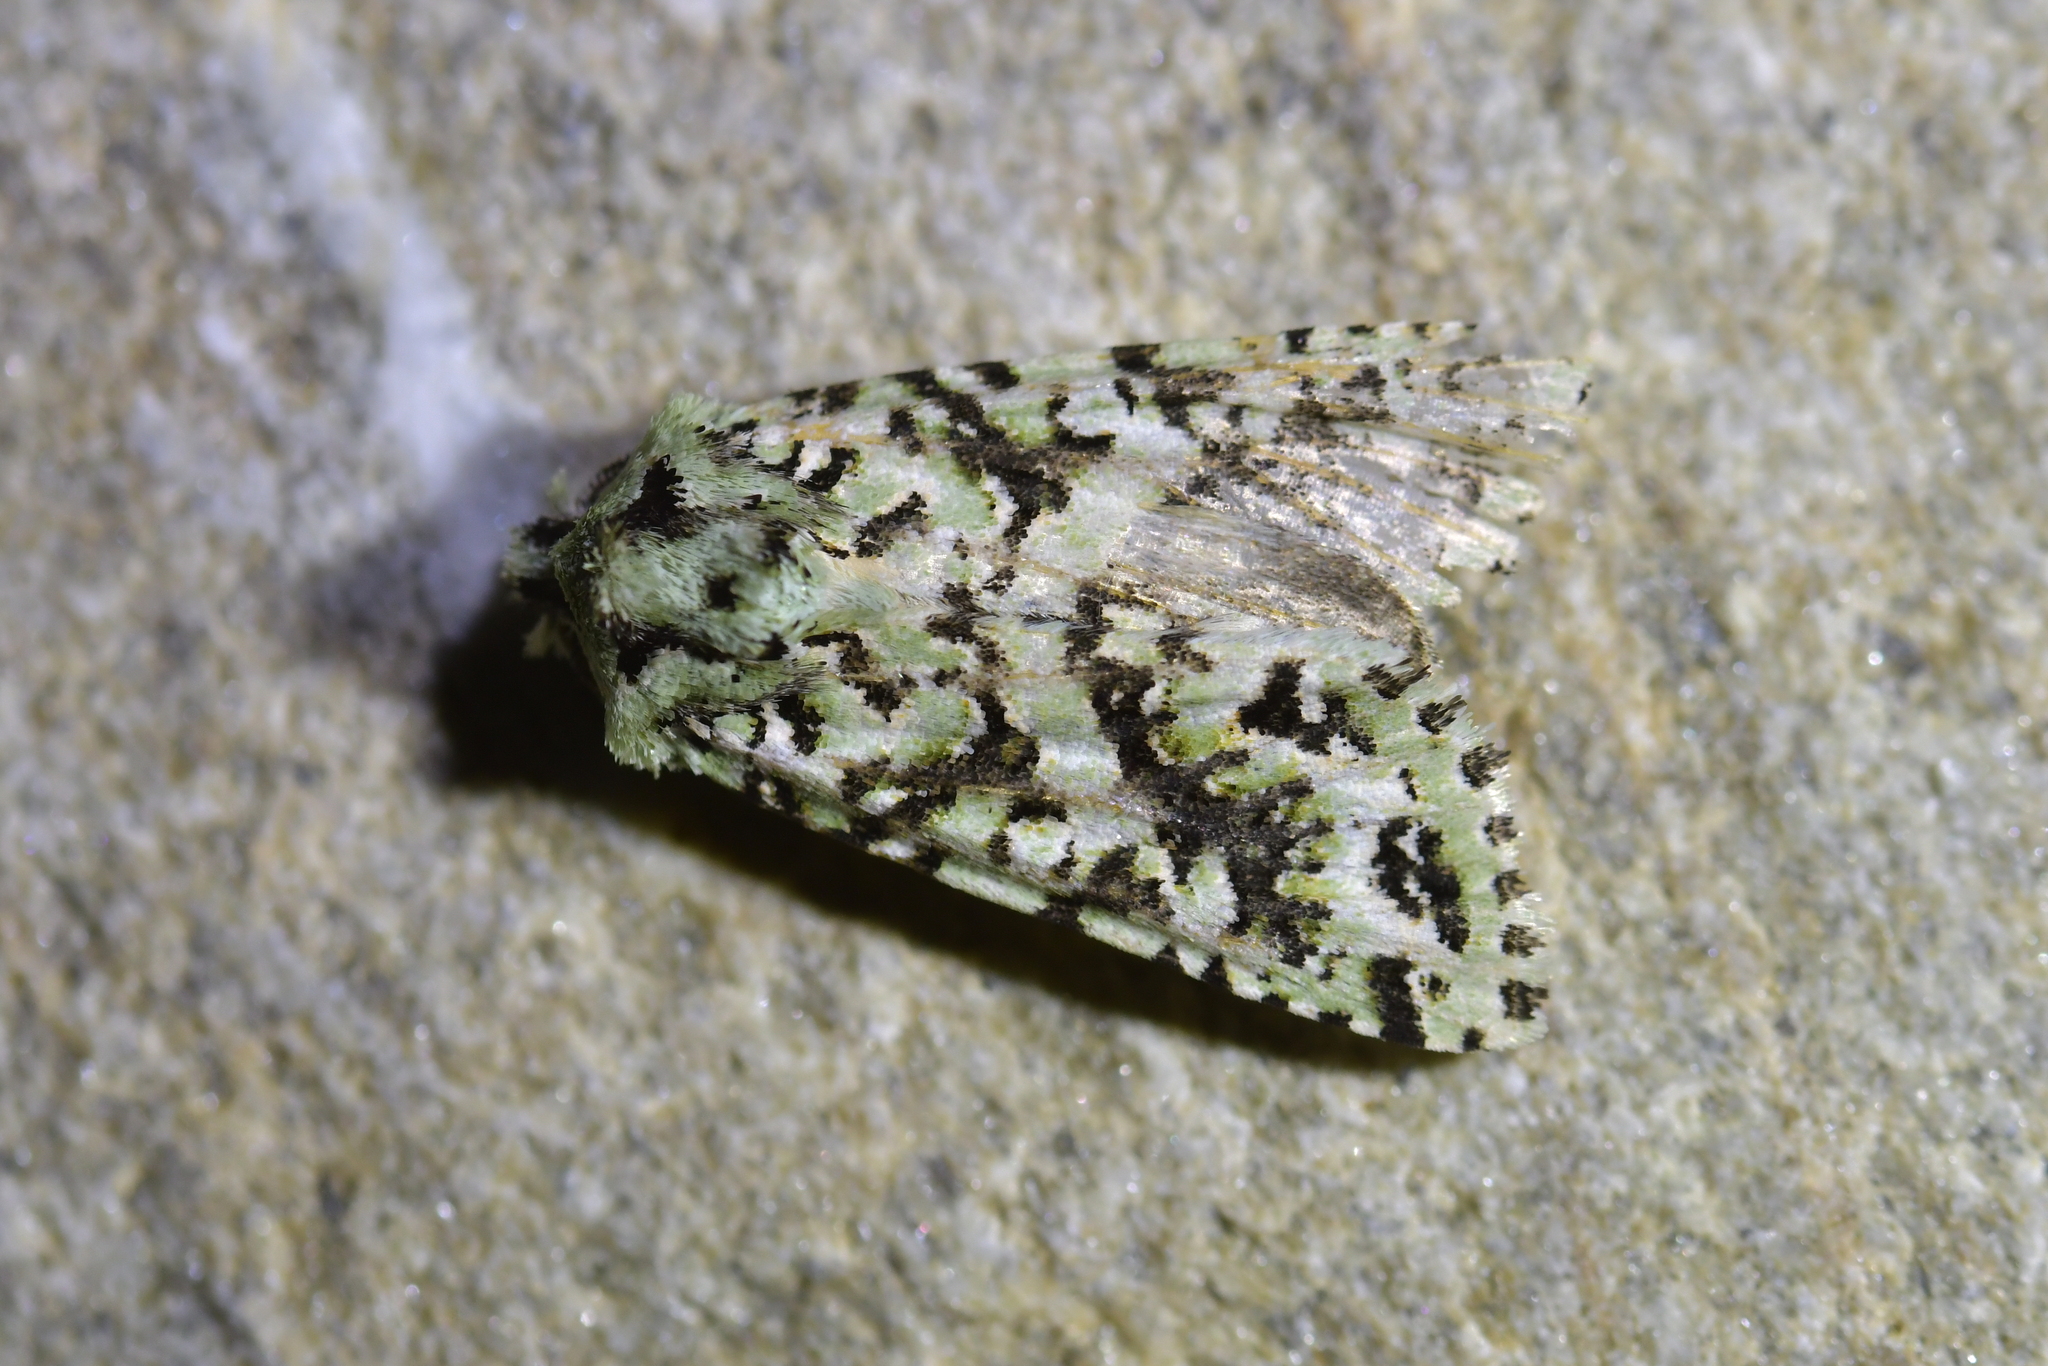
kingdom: Animalia
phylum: Arthropoda
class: Insecta
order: Lepidoptera
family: Noctuidae
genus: Meterana
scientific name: Meterana
